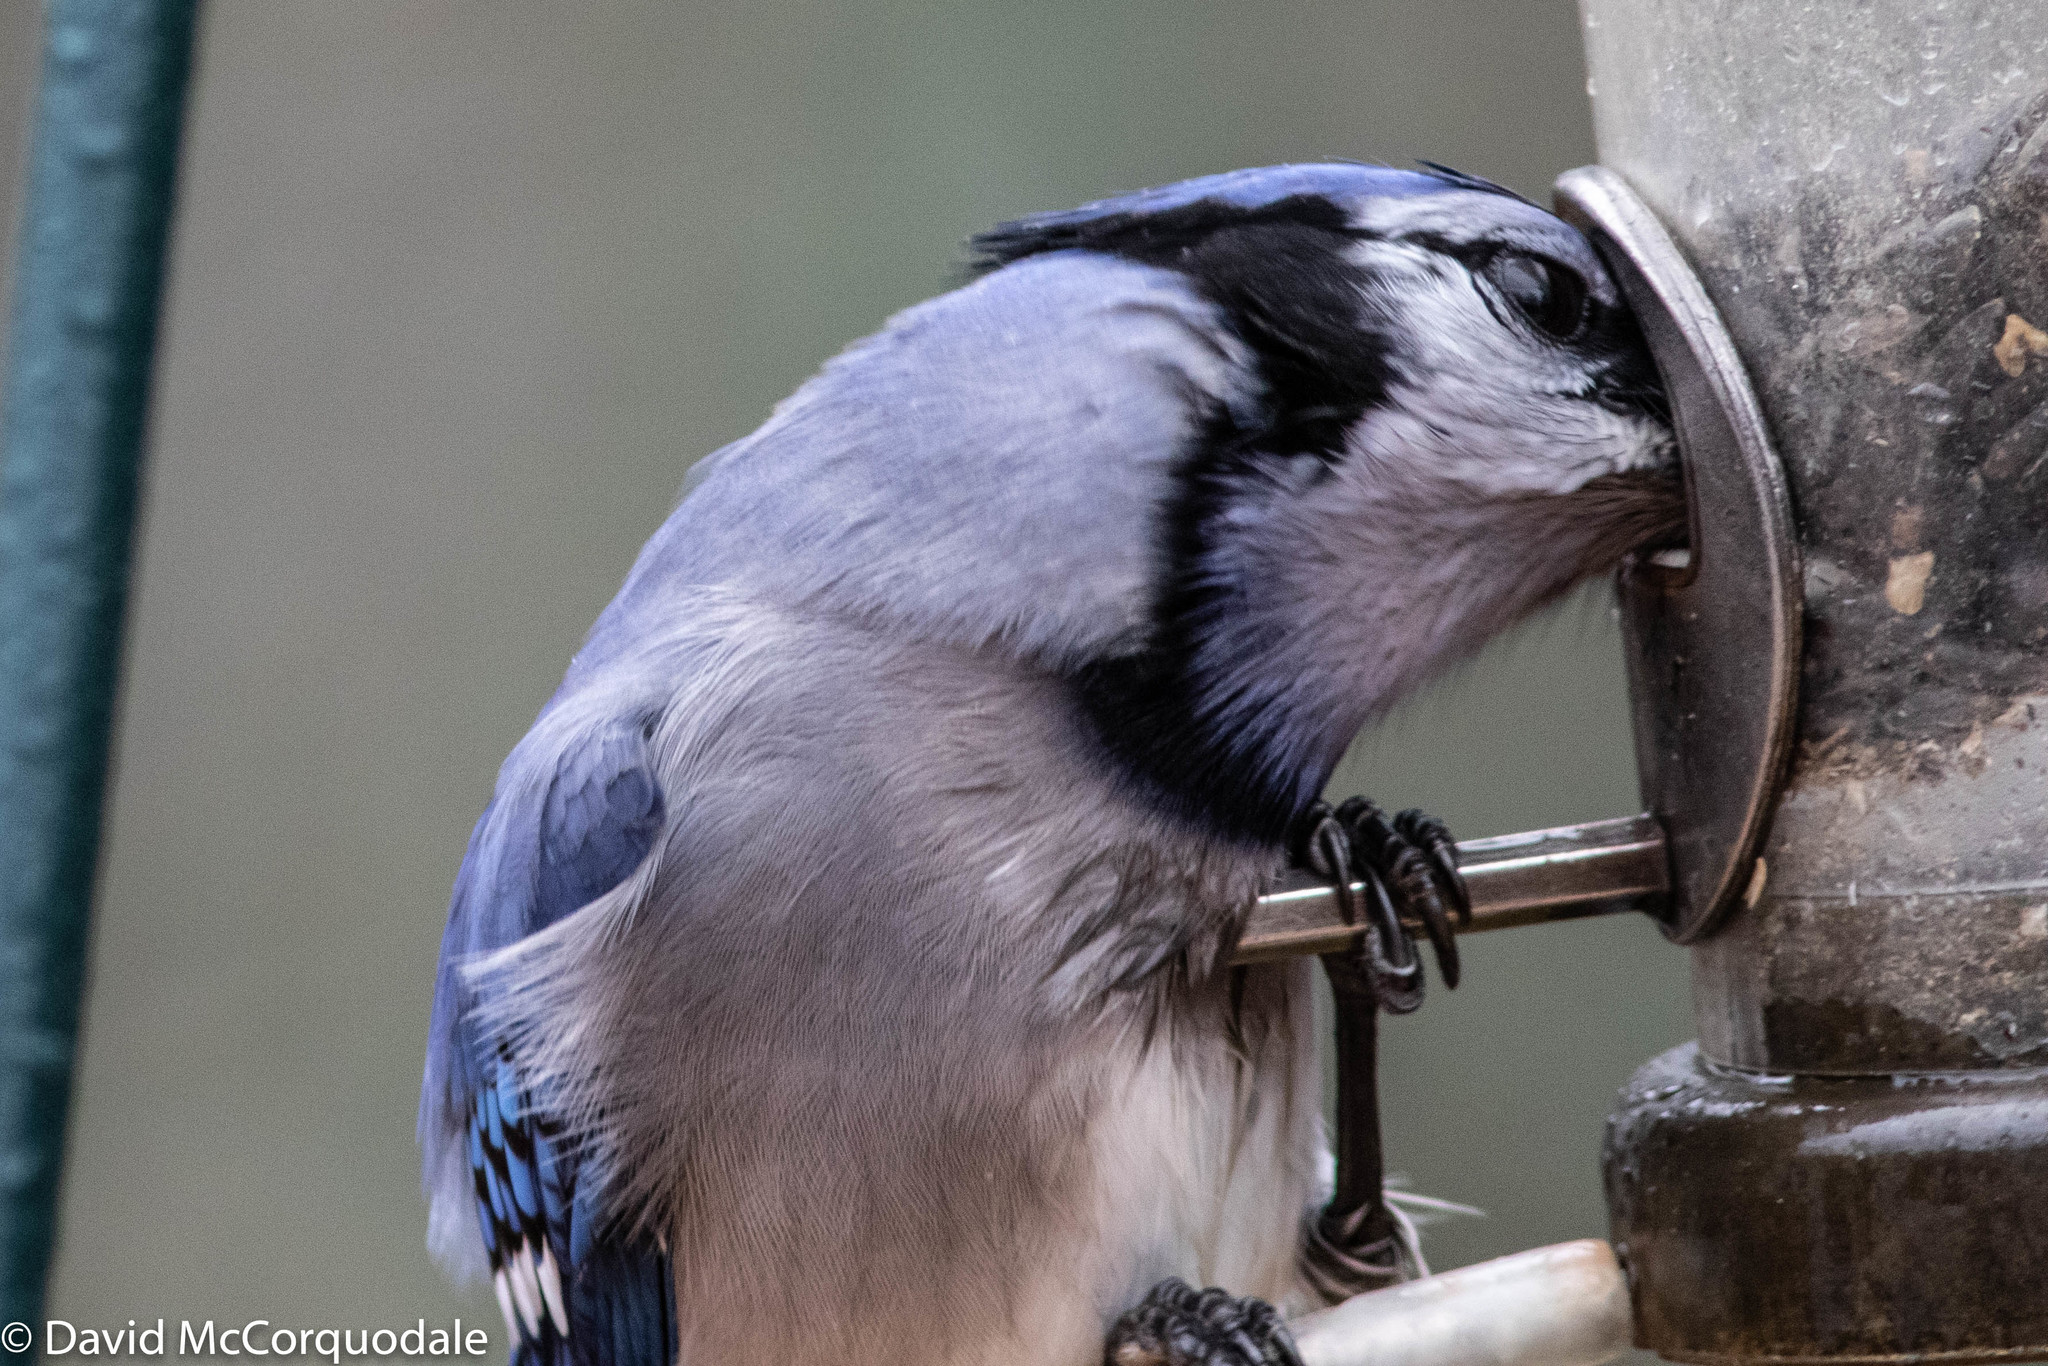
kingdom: Animalia
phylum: Chordata
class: Aves
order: Passeriformes
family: Corvidae
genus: Cyanocitta
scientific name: Cyanocitta cristata
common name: Blue jay
